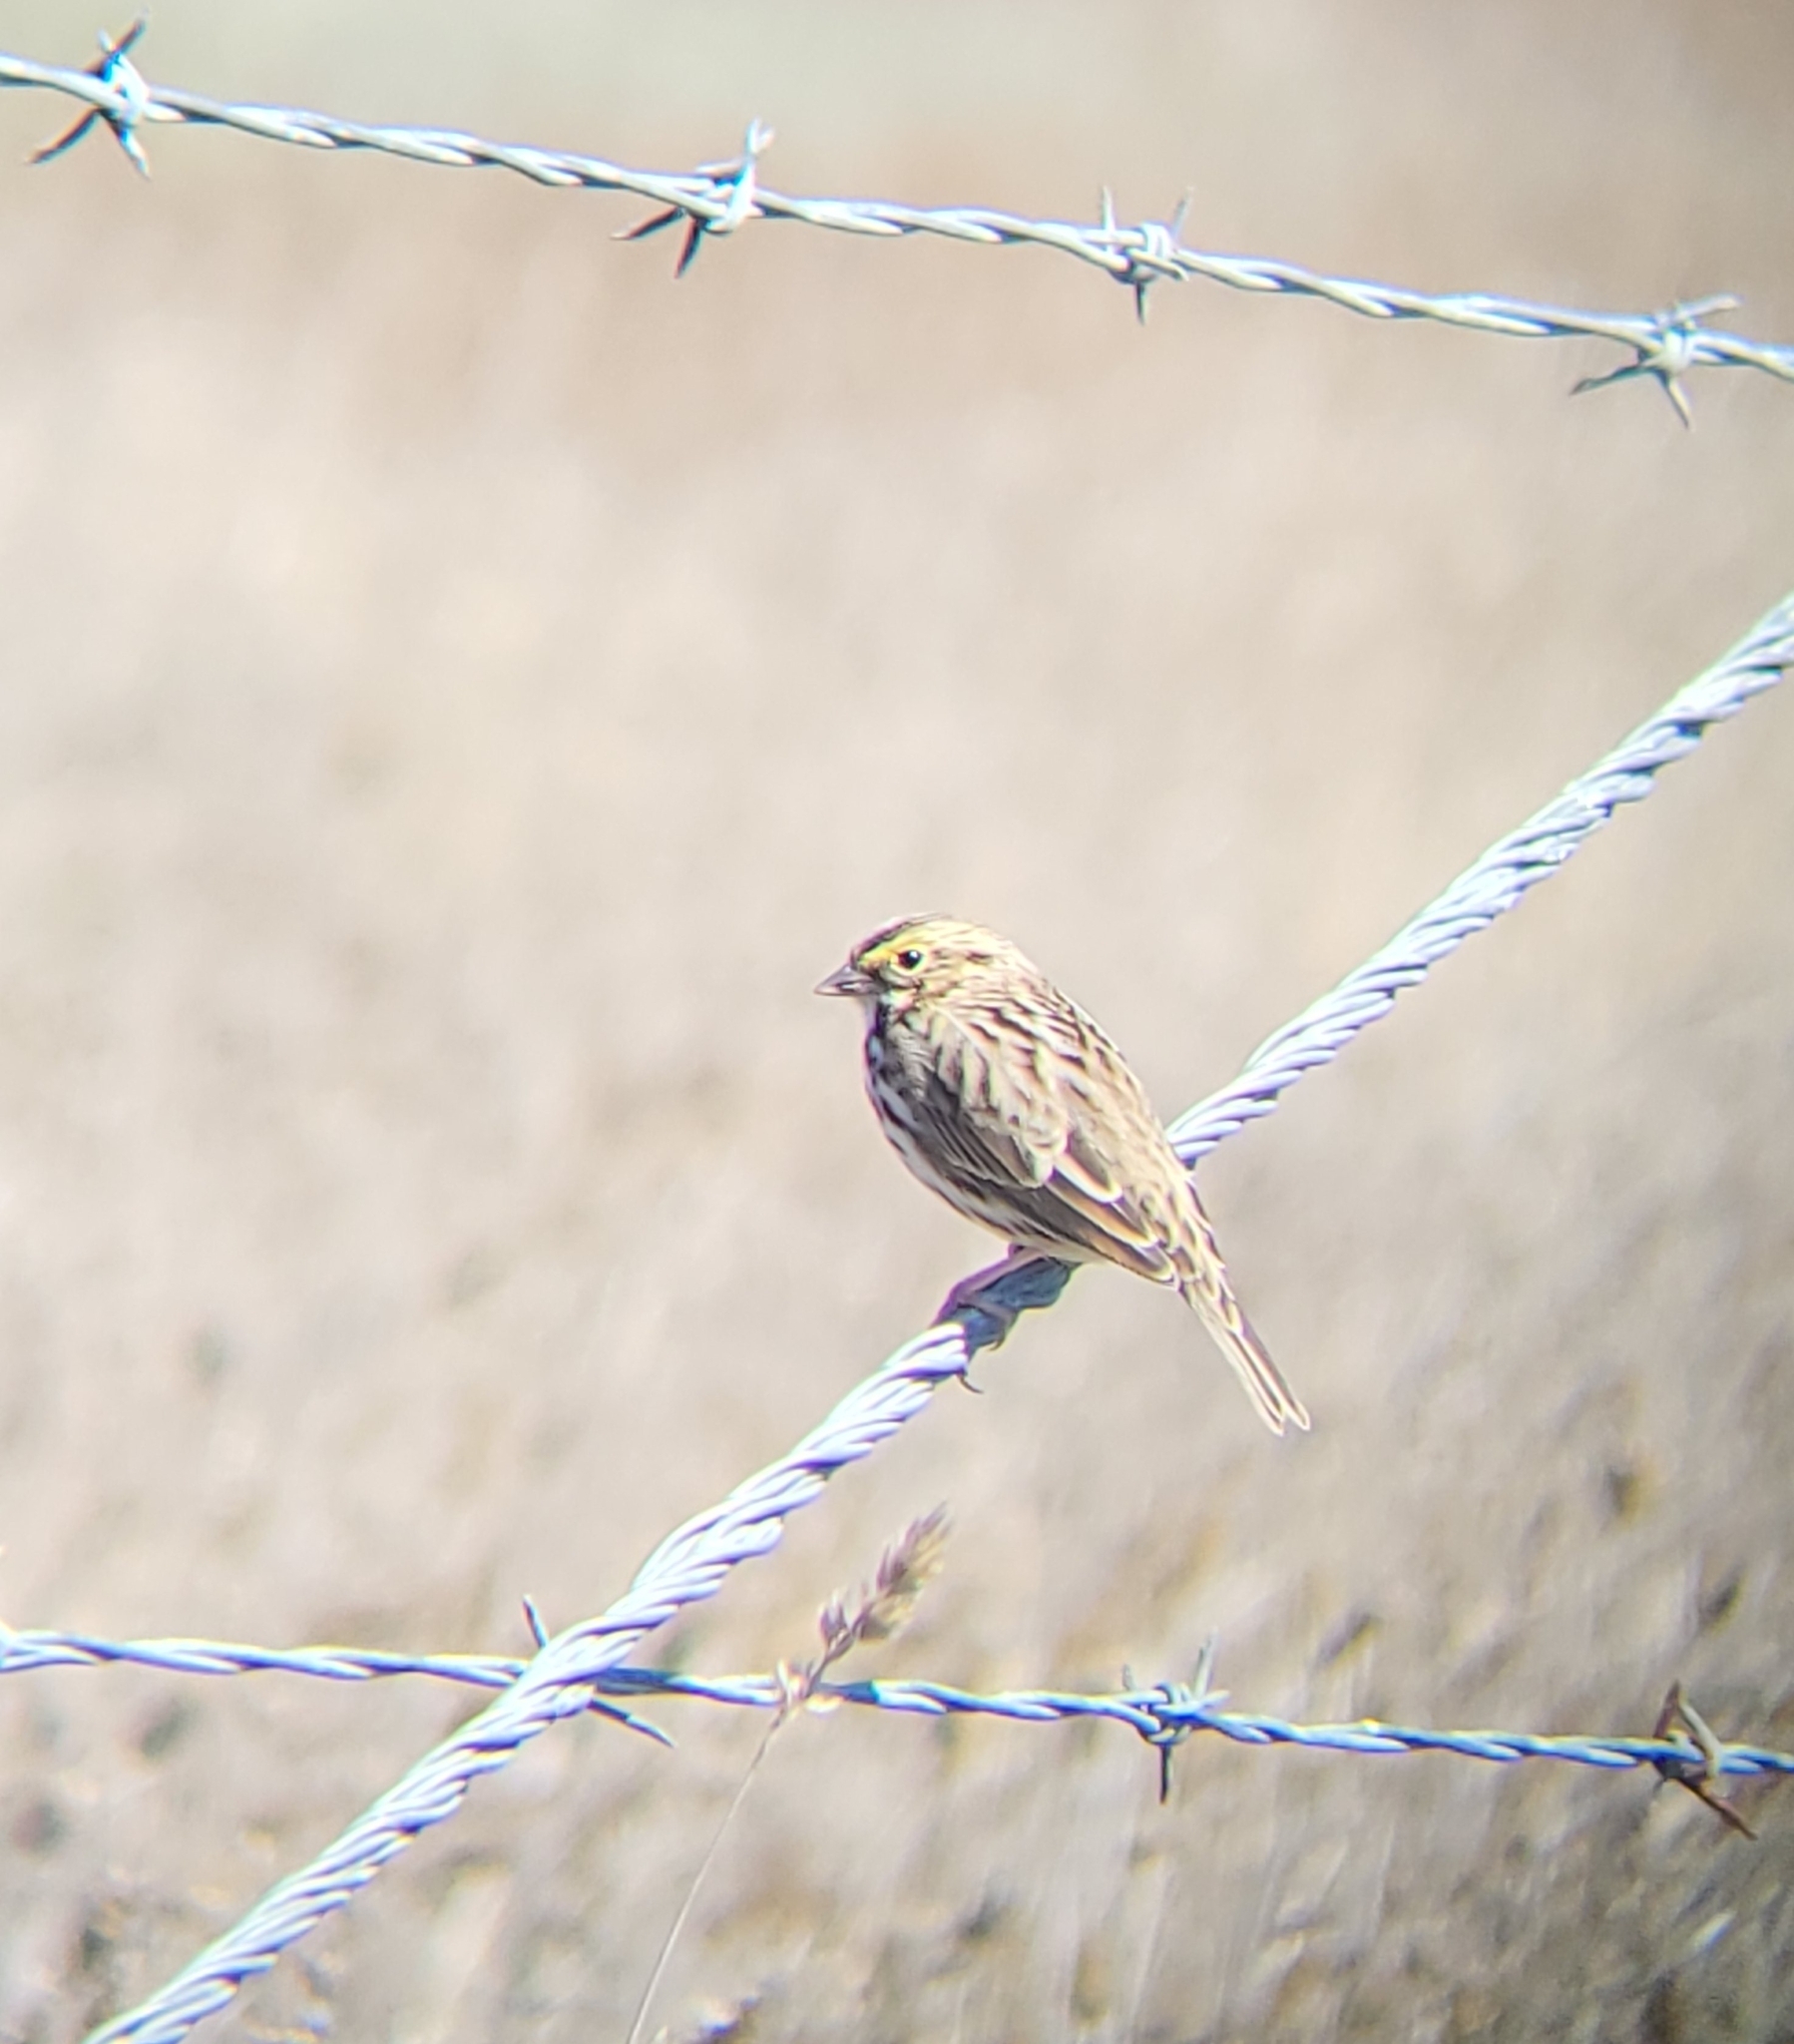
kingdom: Animalia
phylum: Chordata
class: Aves
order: Passeriformes
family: Passerellidae
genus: Passerculus
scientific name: Passerculus sandwichensis
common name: Savannah sparrow
